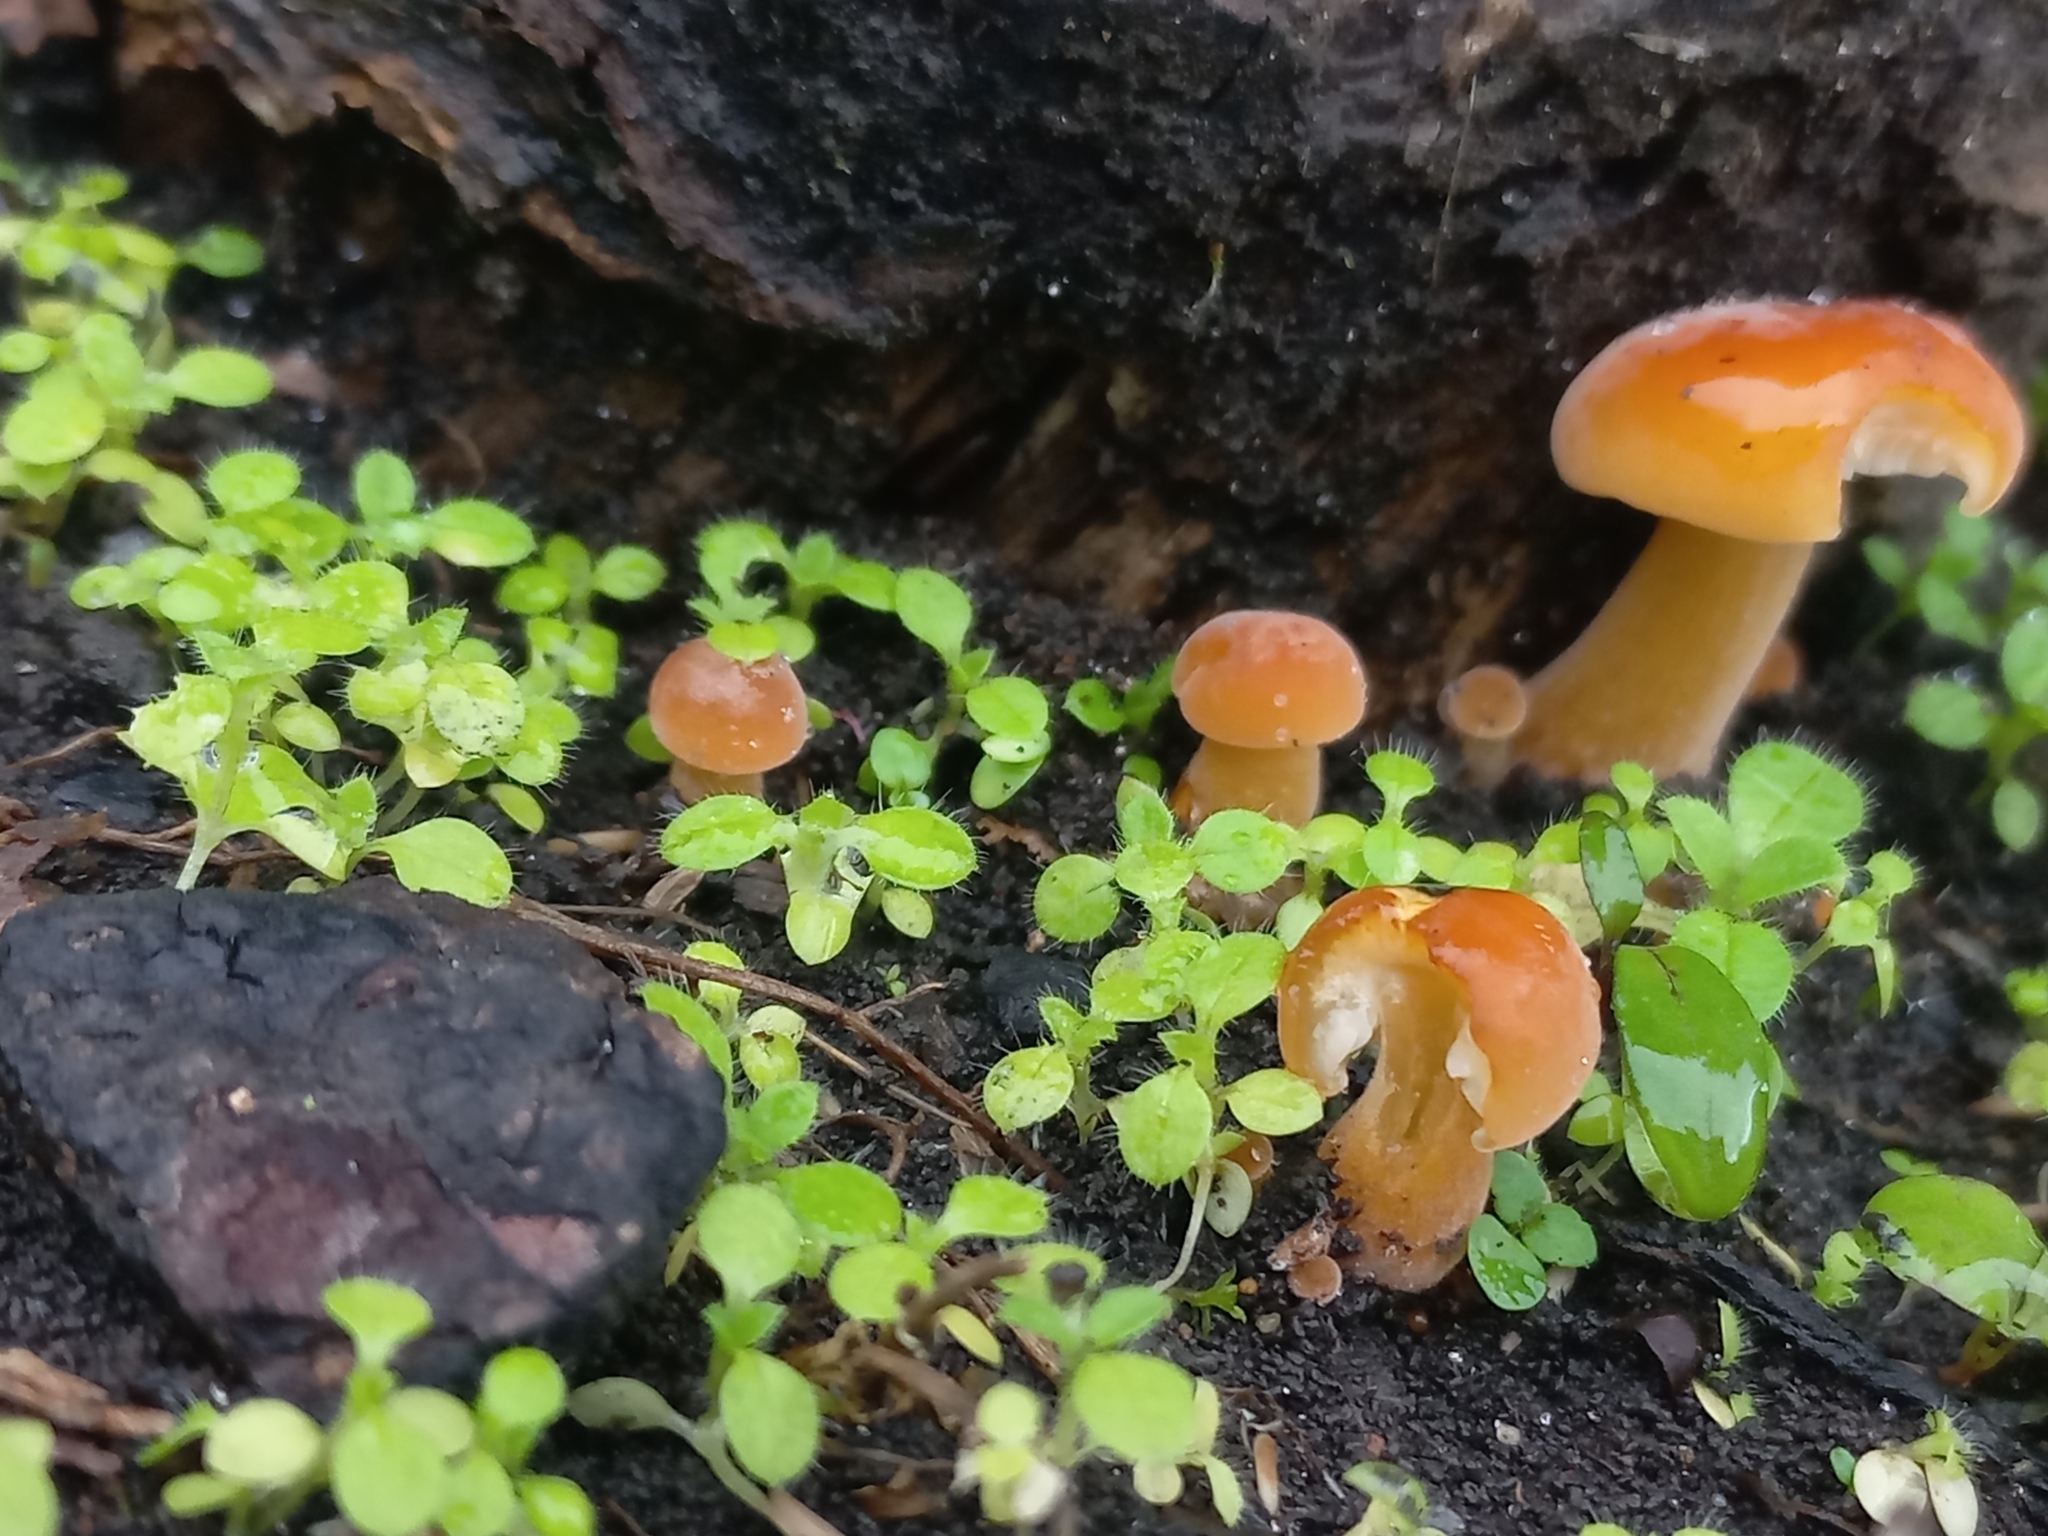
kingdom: Fungi
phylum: Basidiomycota
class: Agaricomycetes
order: Agaricales
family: Physalacriaceae
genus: Flammulina
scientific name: Flammulina velutipes
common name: Velvet shank
